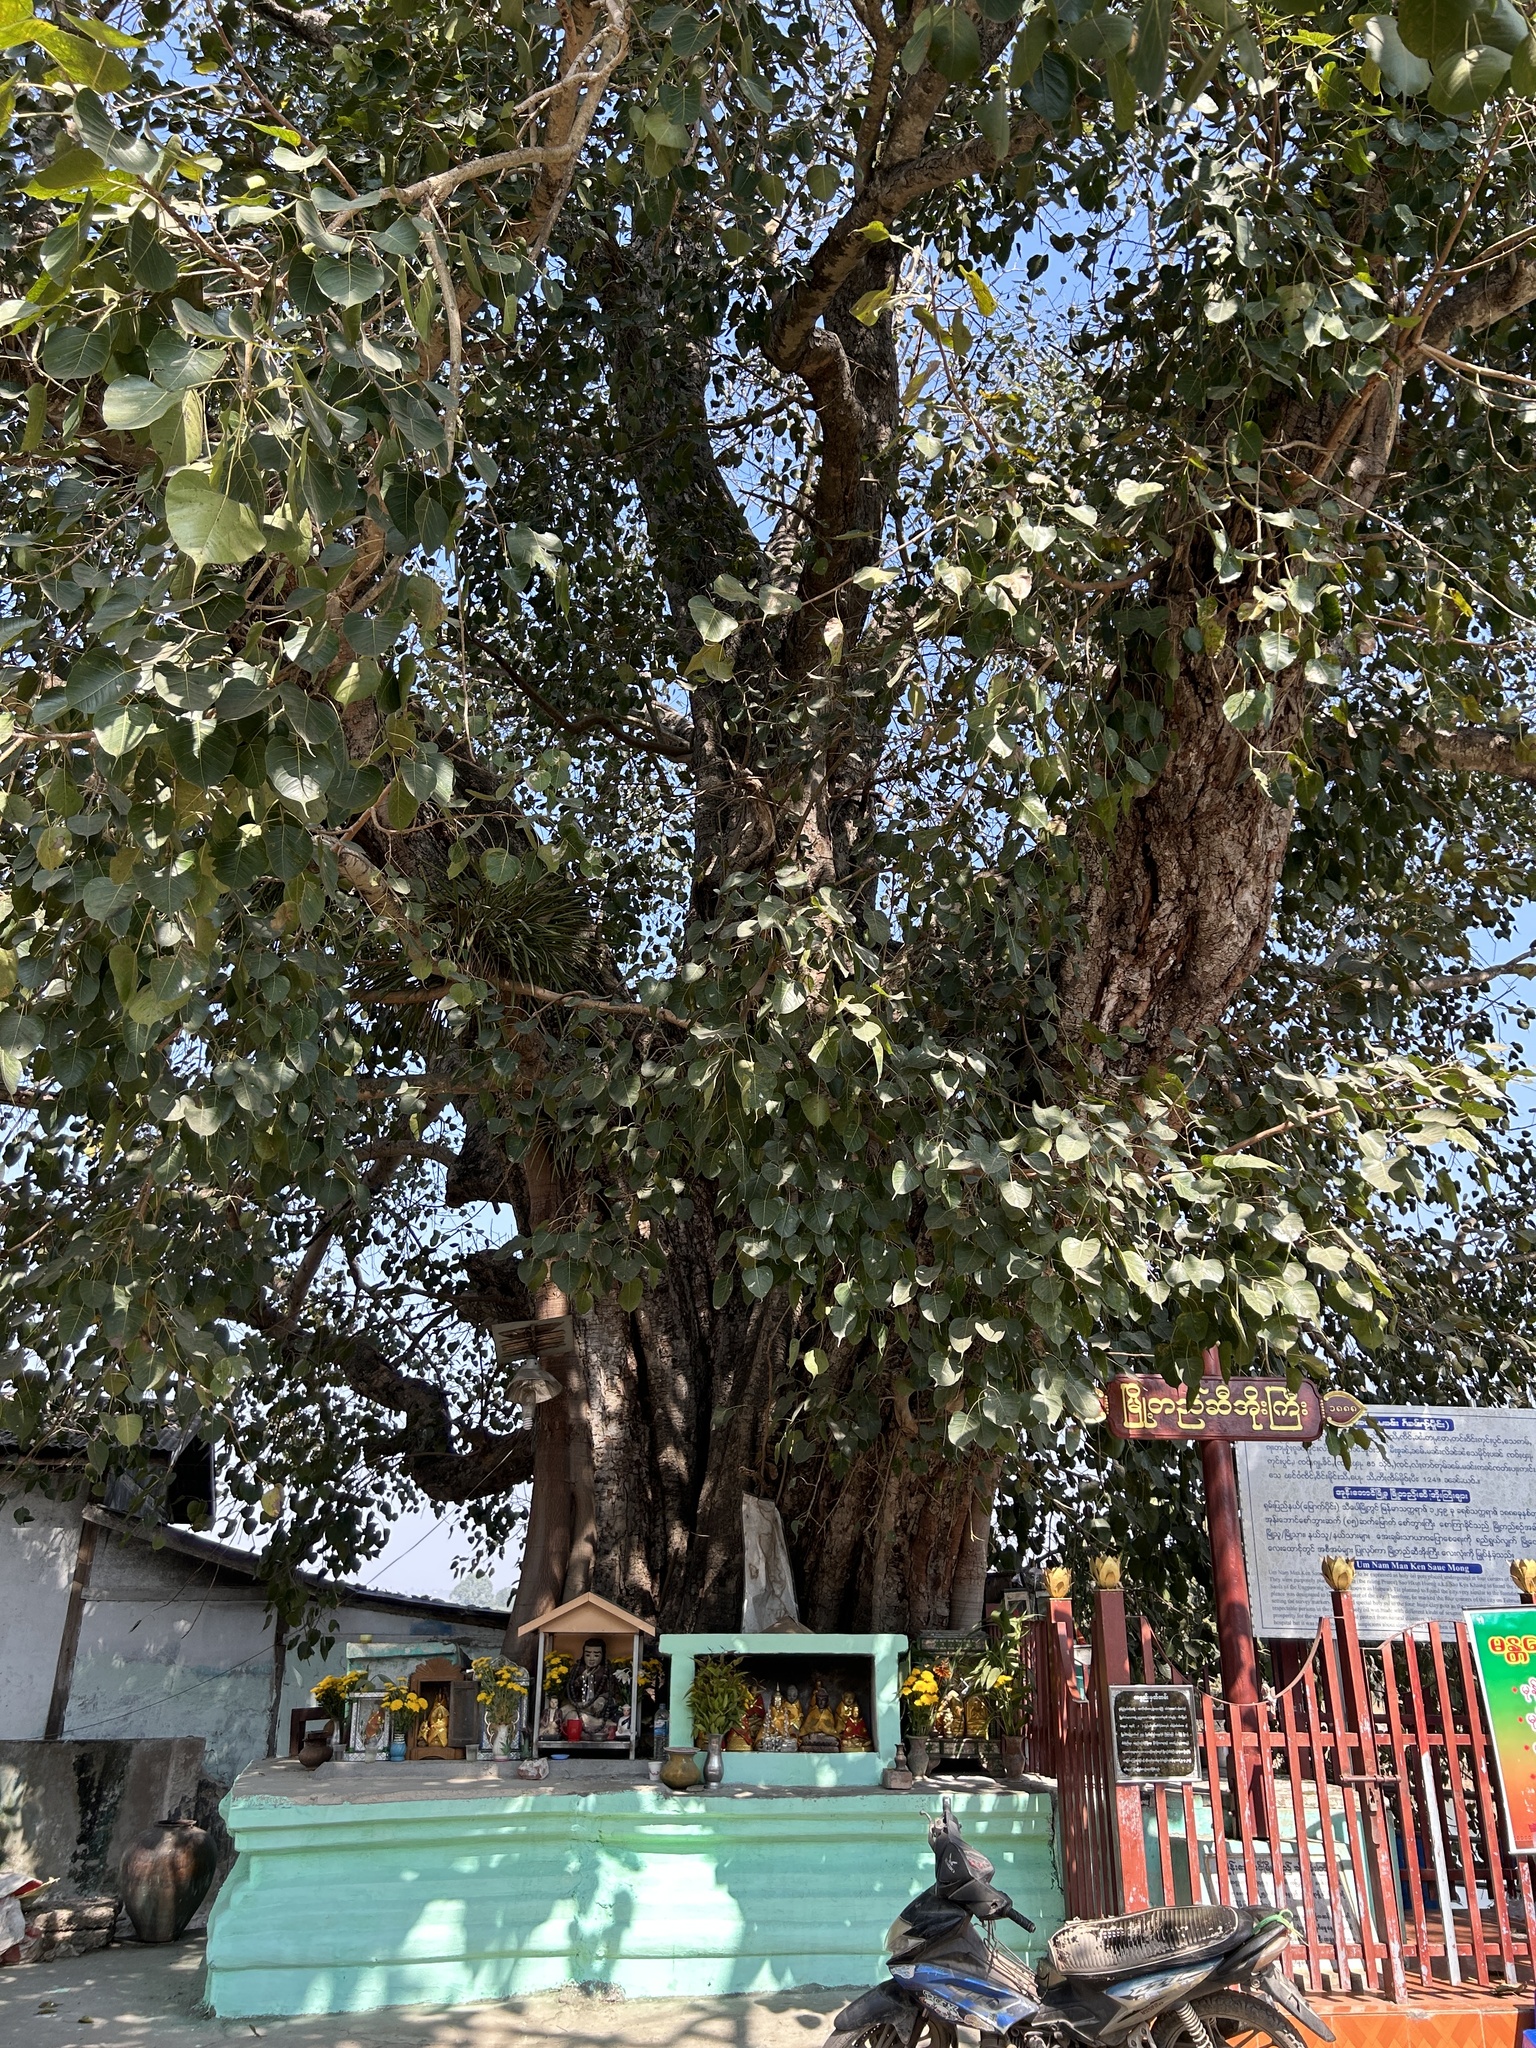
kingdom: Plantae
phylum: Tracheophyta
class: Magnoliopsida
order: Rosales
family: Moraceae
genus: Ficus
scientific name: Ficus religiosa
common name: Bodhi tree
